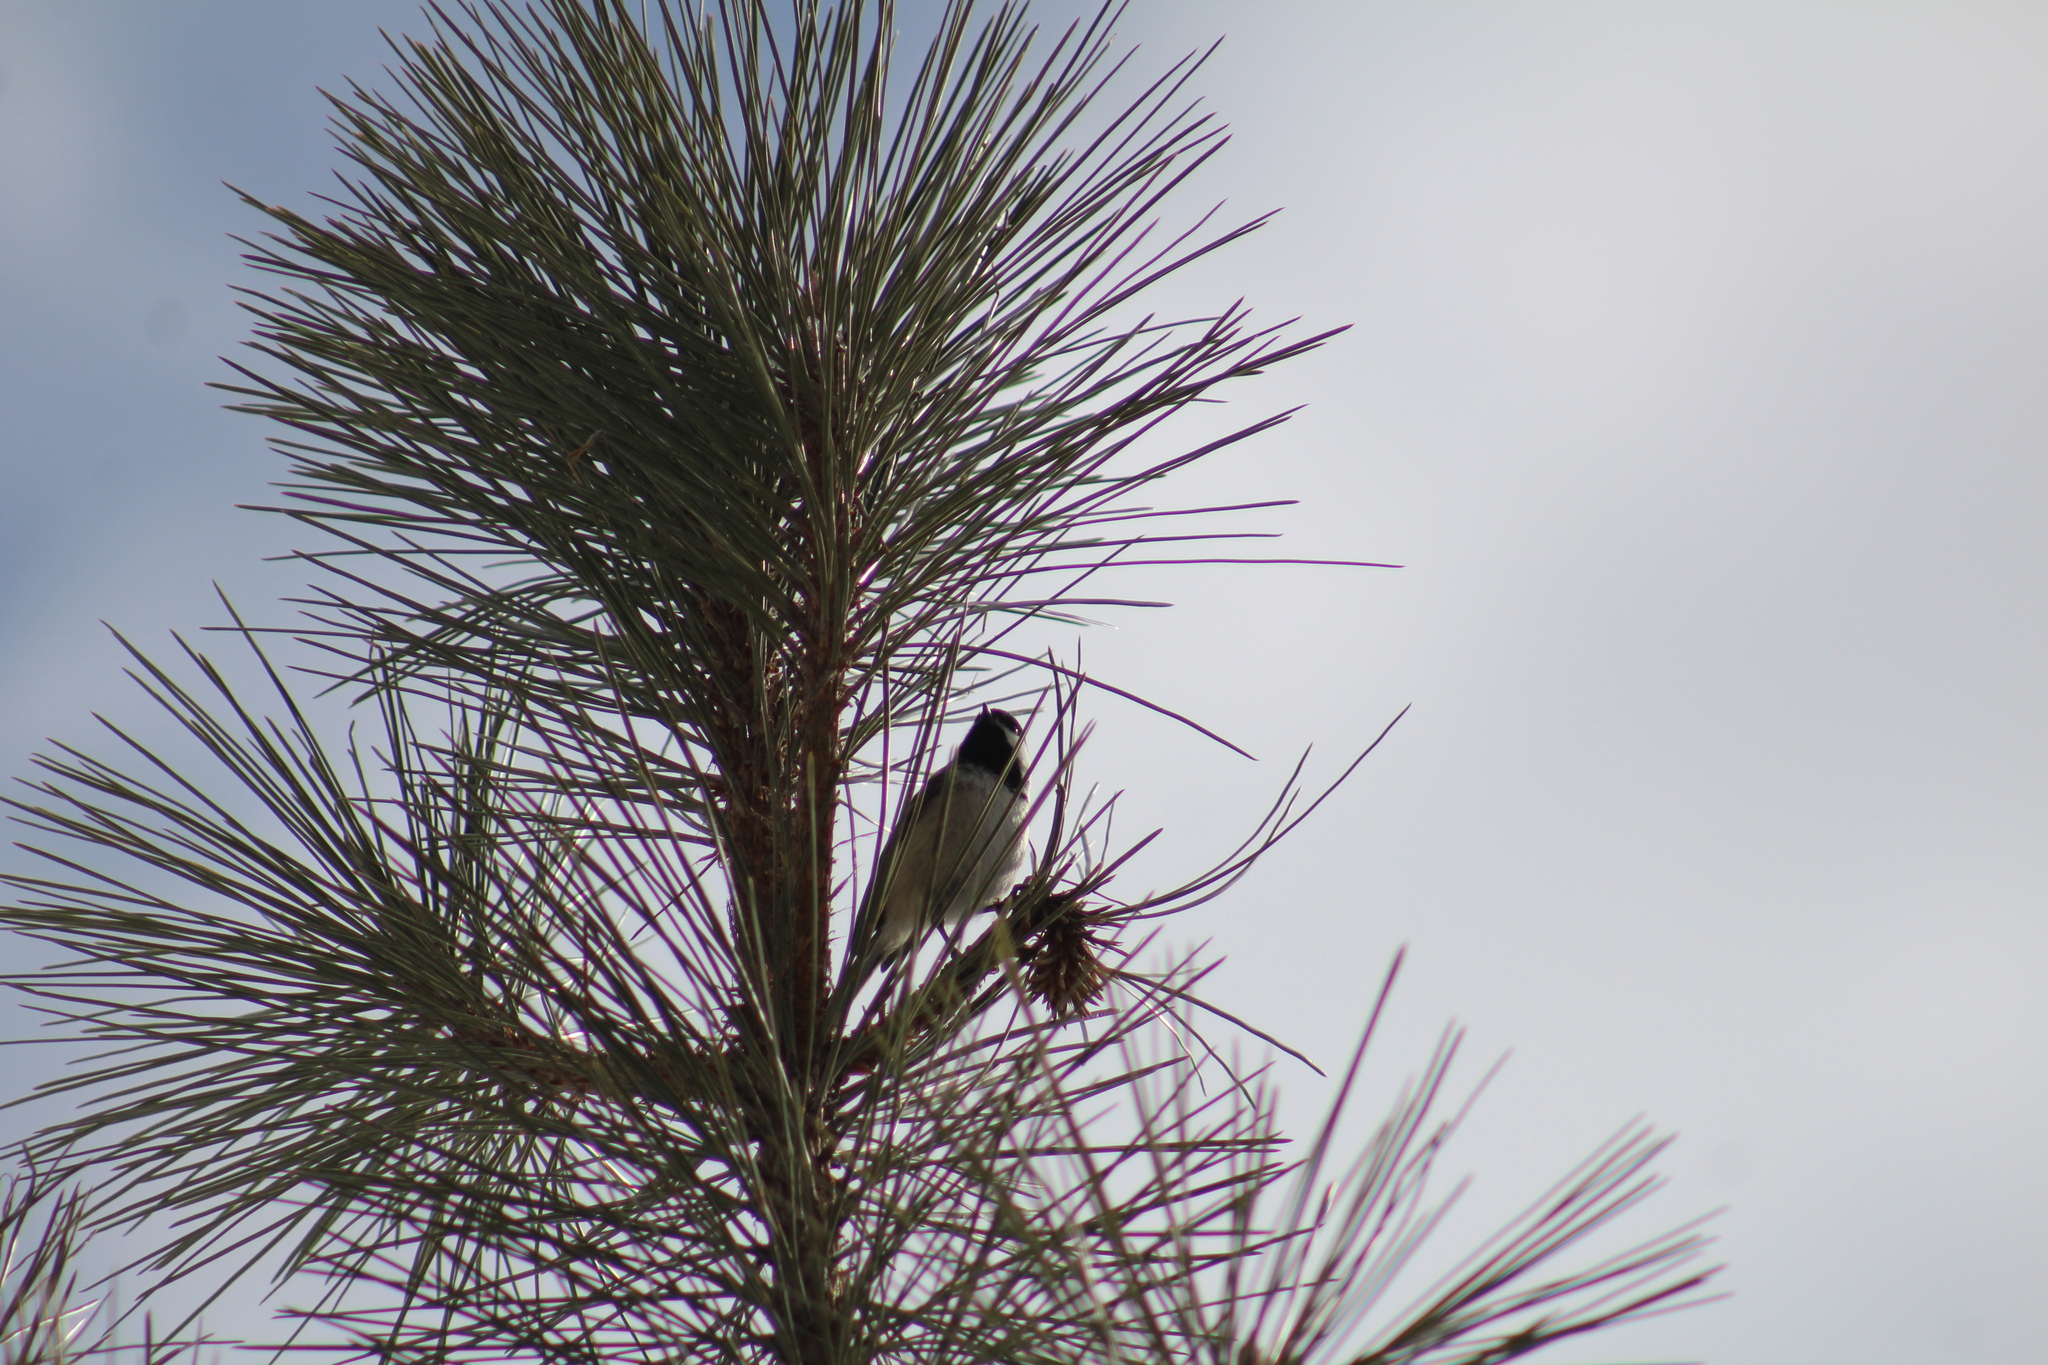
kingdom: Animalia
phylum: Chordata
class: Aves
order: Passeriformes
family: Paridae
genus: Poecile
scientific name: Poecile atricapillus
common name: Black-capped chickadee
